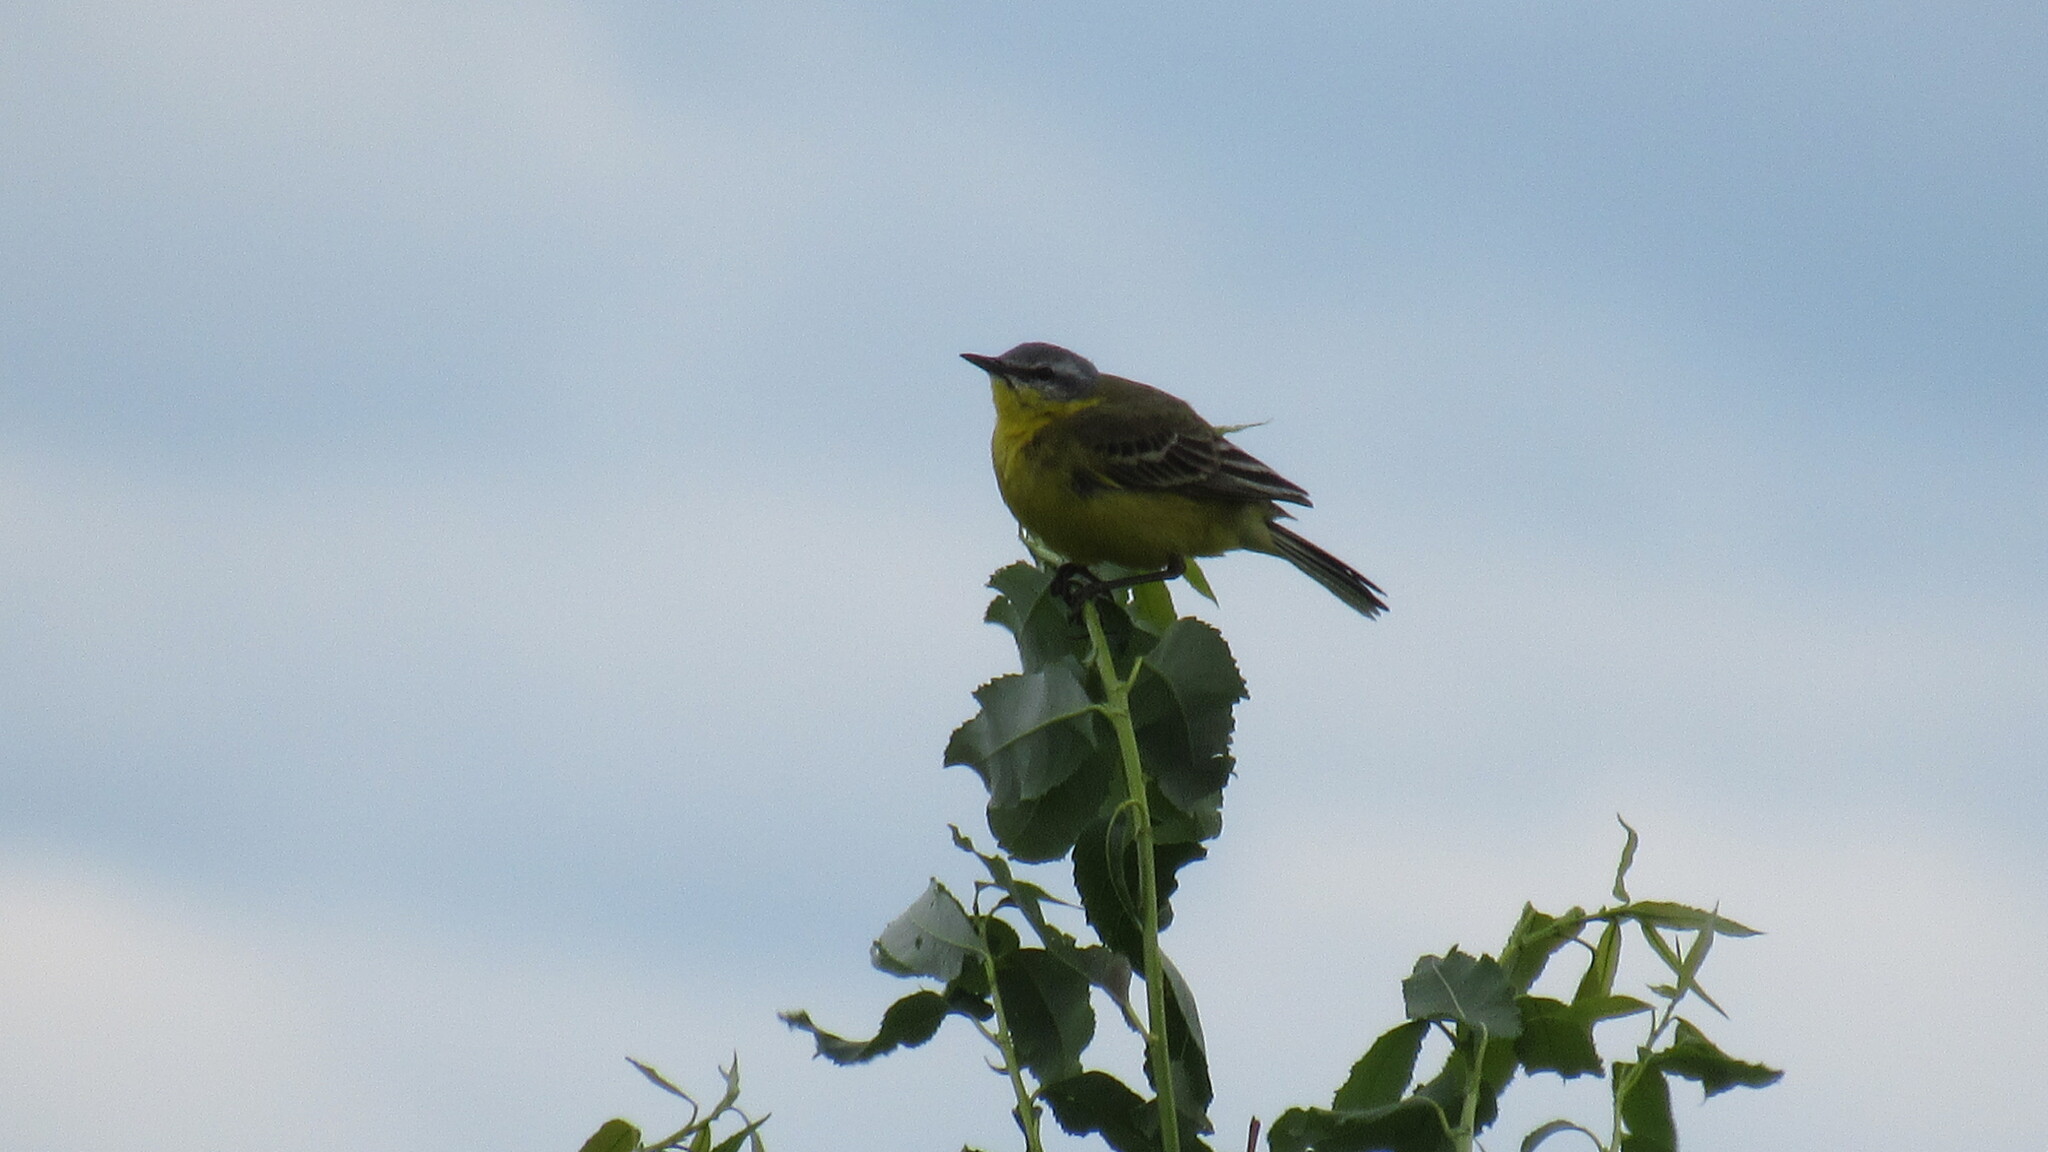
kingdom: Animalia
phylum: Chordata
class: Aves
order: Passeriformes
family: Motacillidae
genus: Motacilla
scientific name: Motacilla flava
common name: Western yellow wagtail
